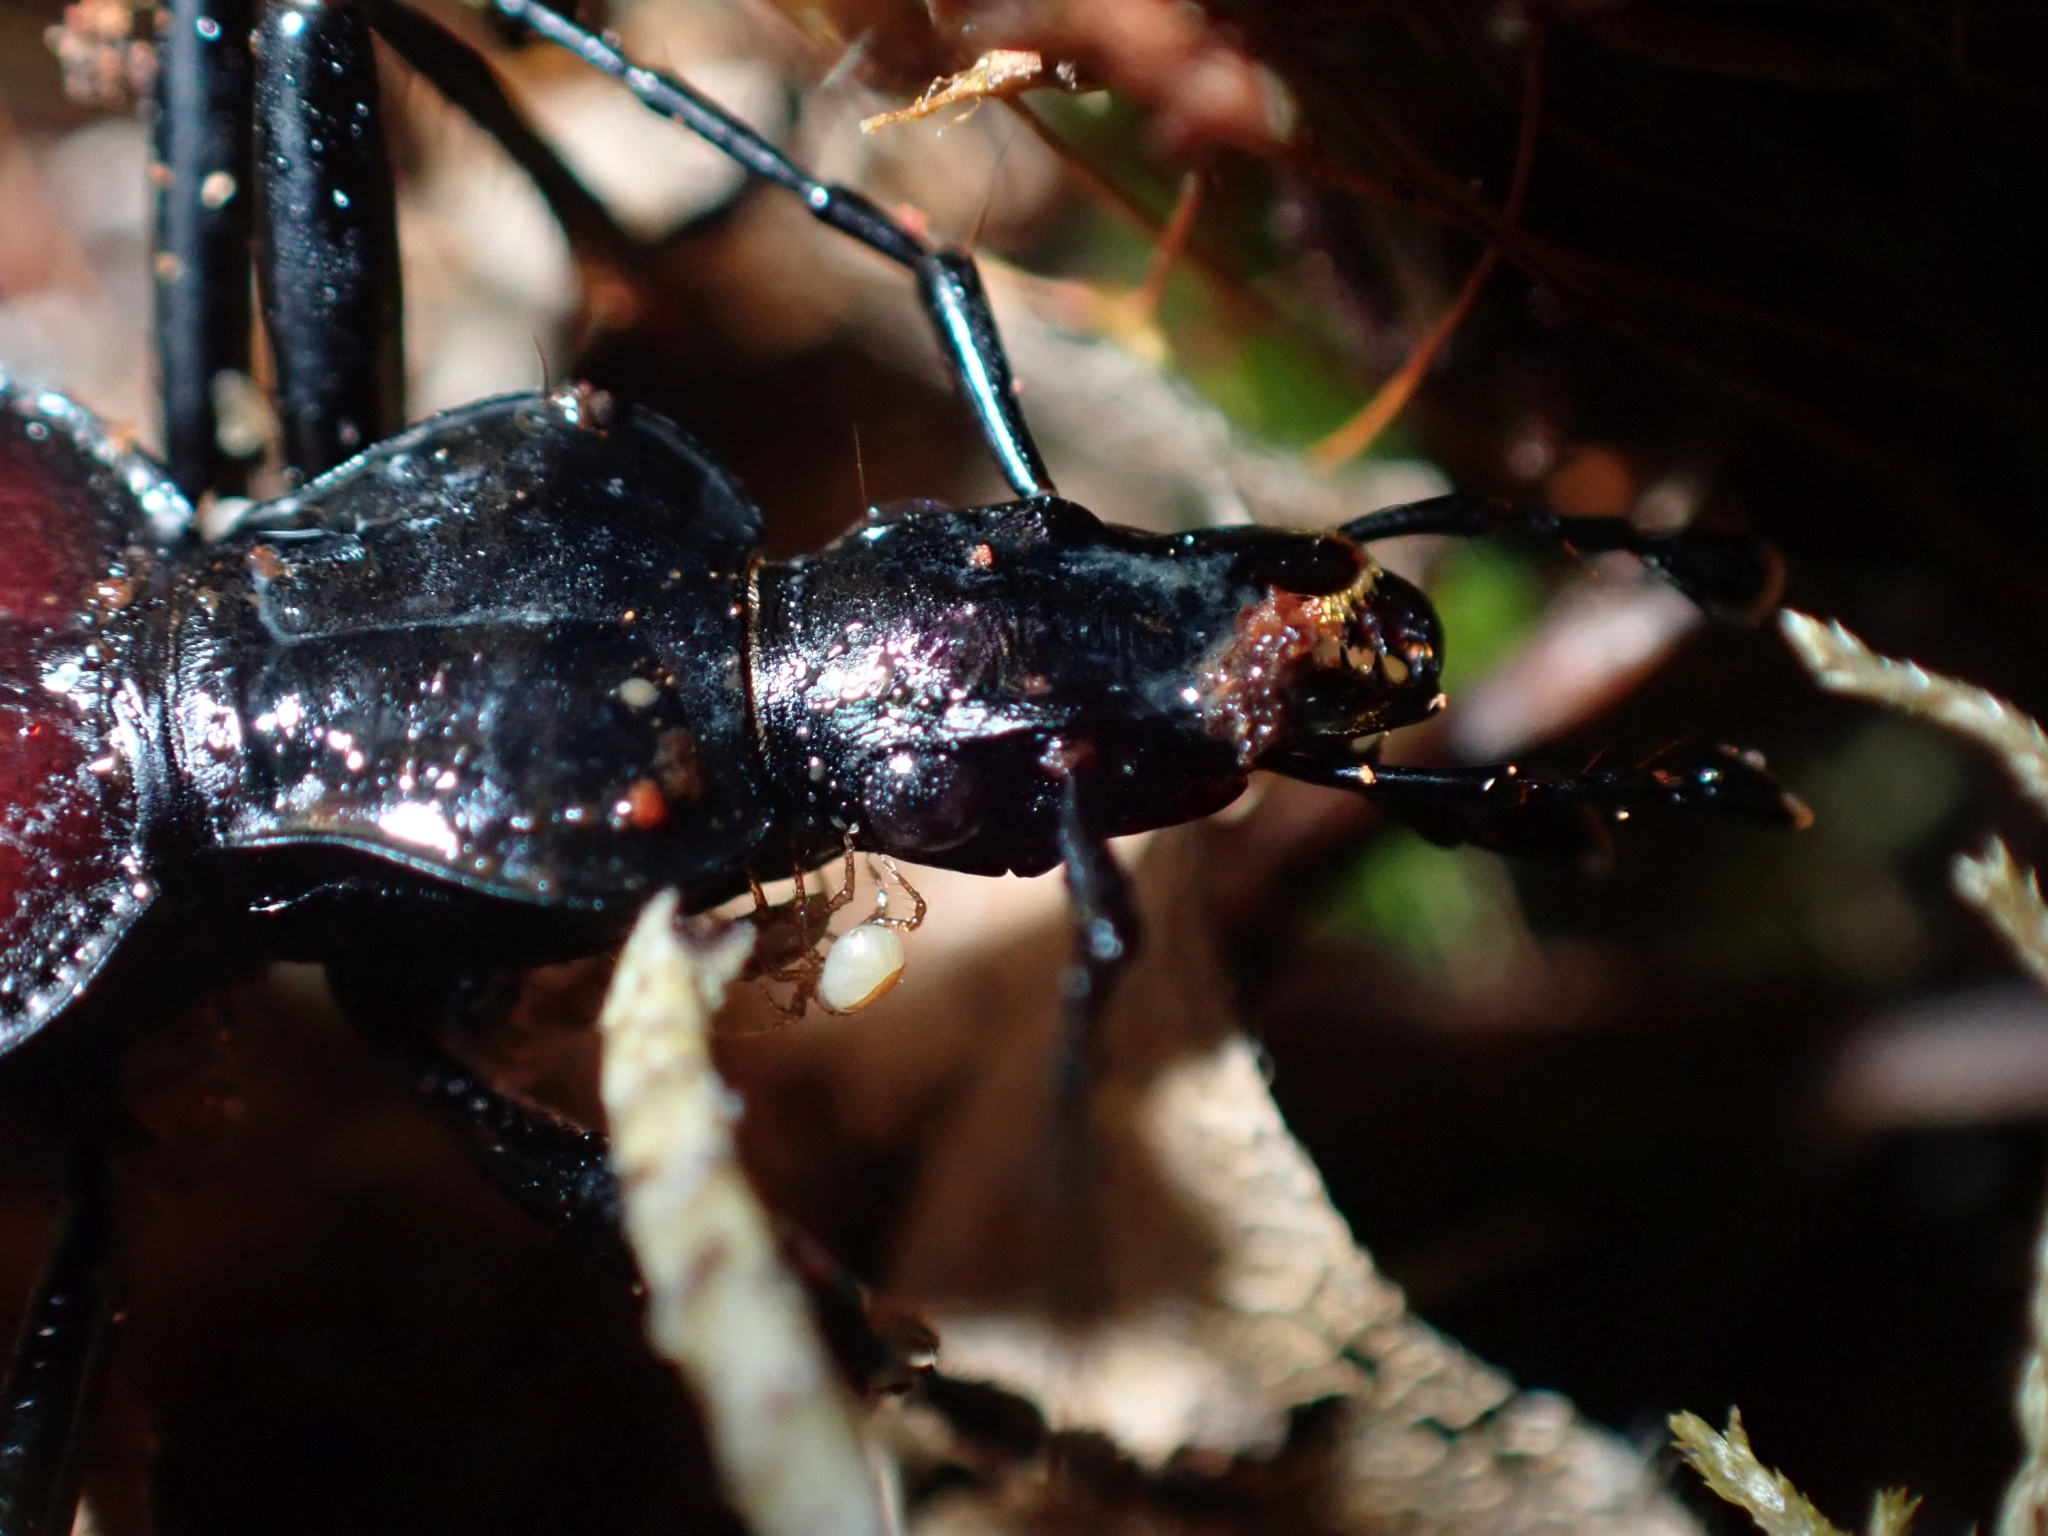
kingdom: Animalia
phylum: Arthropoda
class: Insecta
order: Coleoptera
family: Carabidae
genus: Scaphinotus
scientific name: Scaphinotus angusticollis
